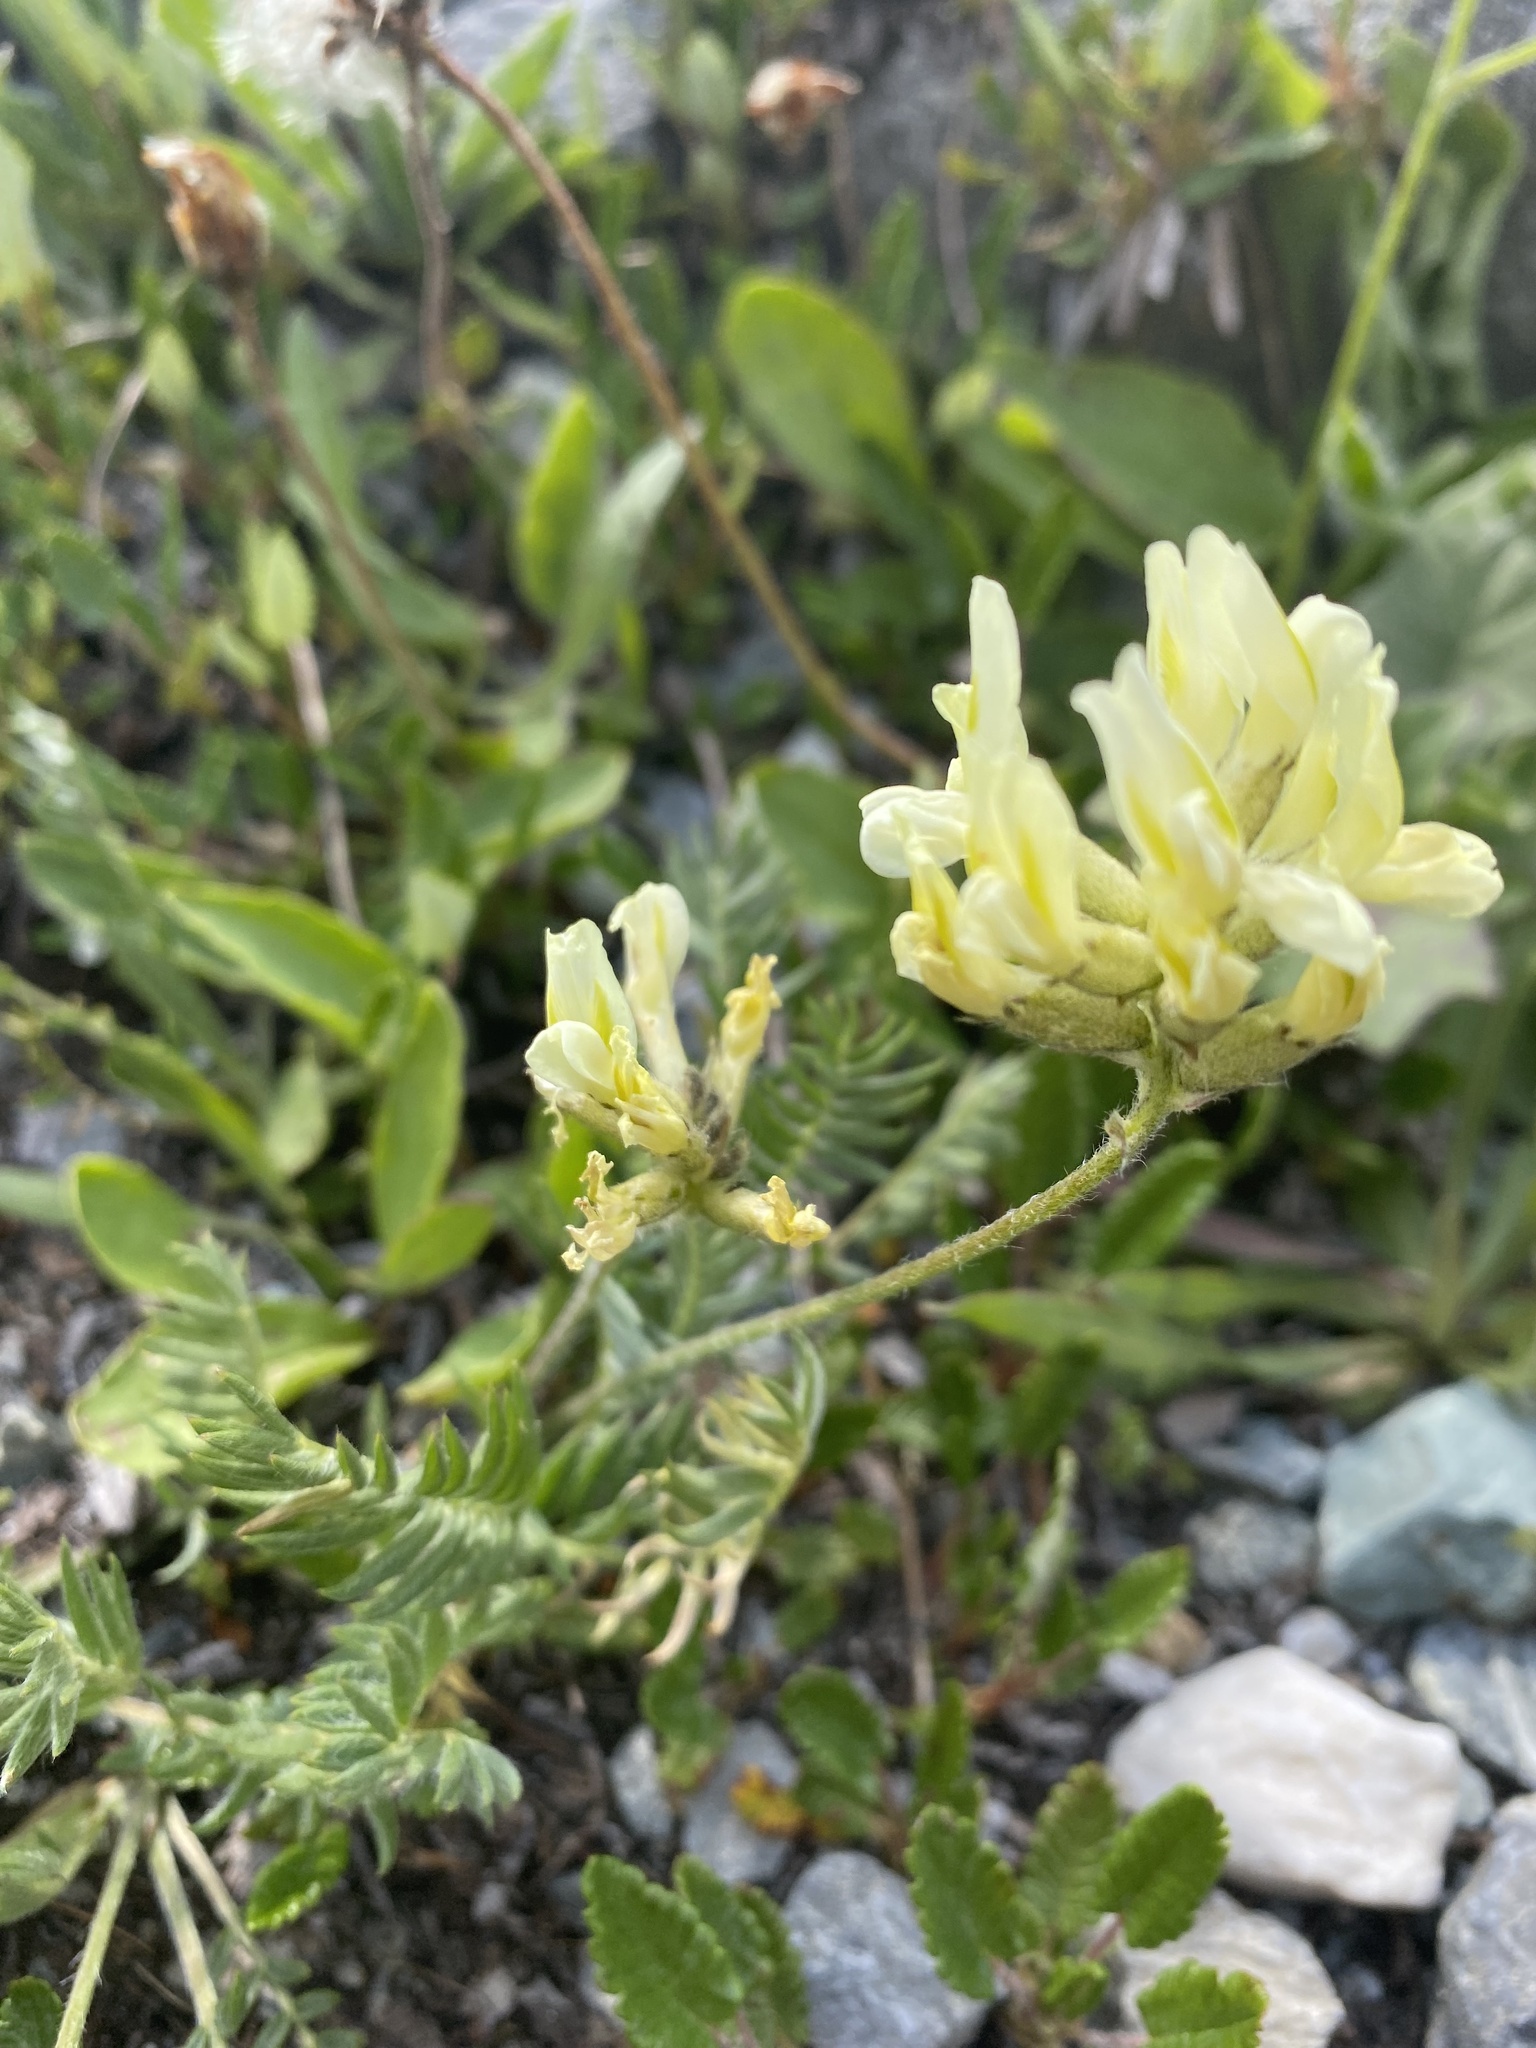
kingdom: Plantae
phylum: Tracheophyta
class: Magnoliopsida
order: Fabales
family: Fabaceae
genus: Oxytropis
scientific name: Oxytropis campestris
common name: Field locoweed
